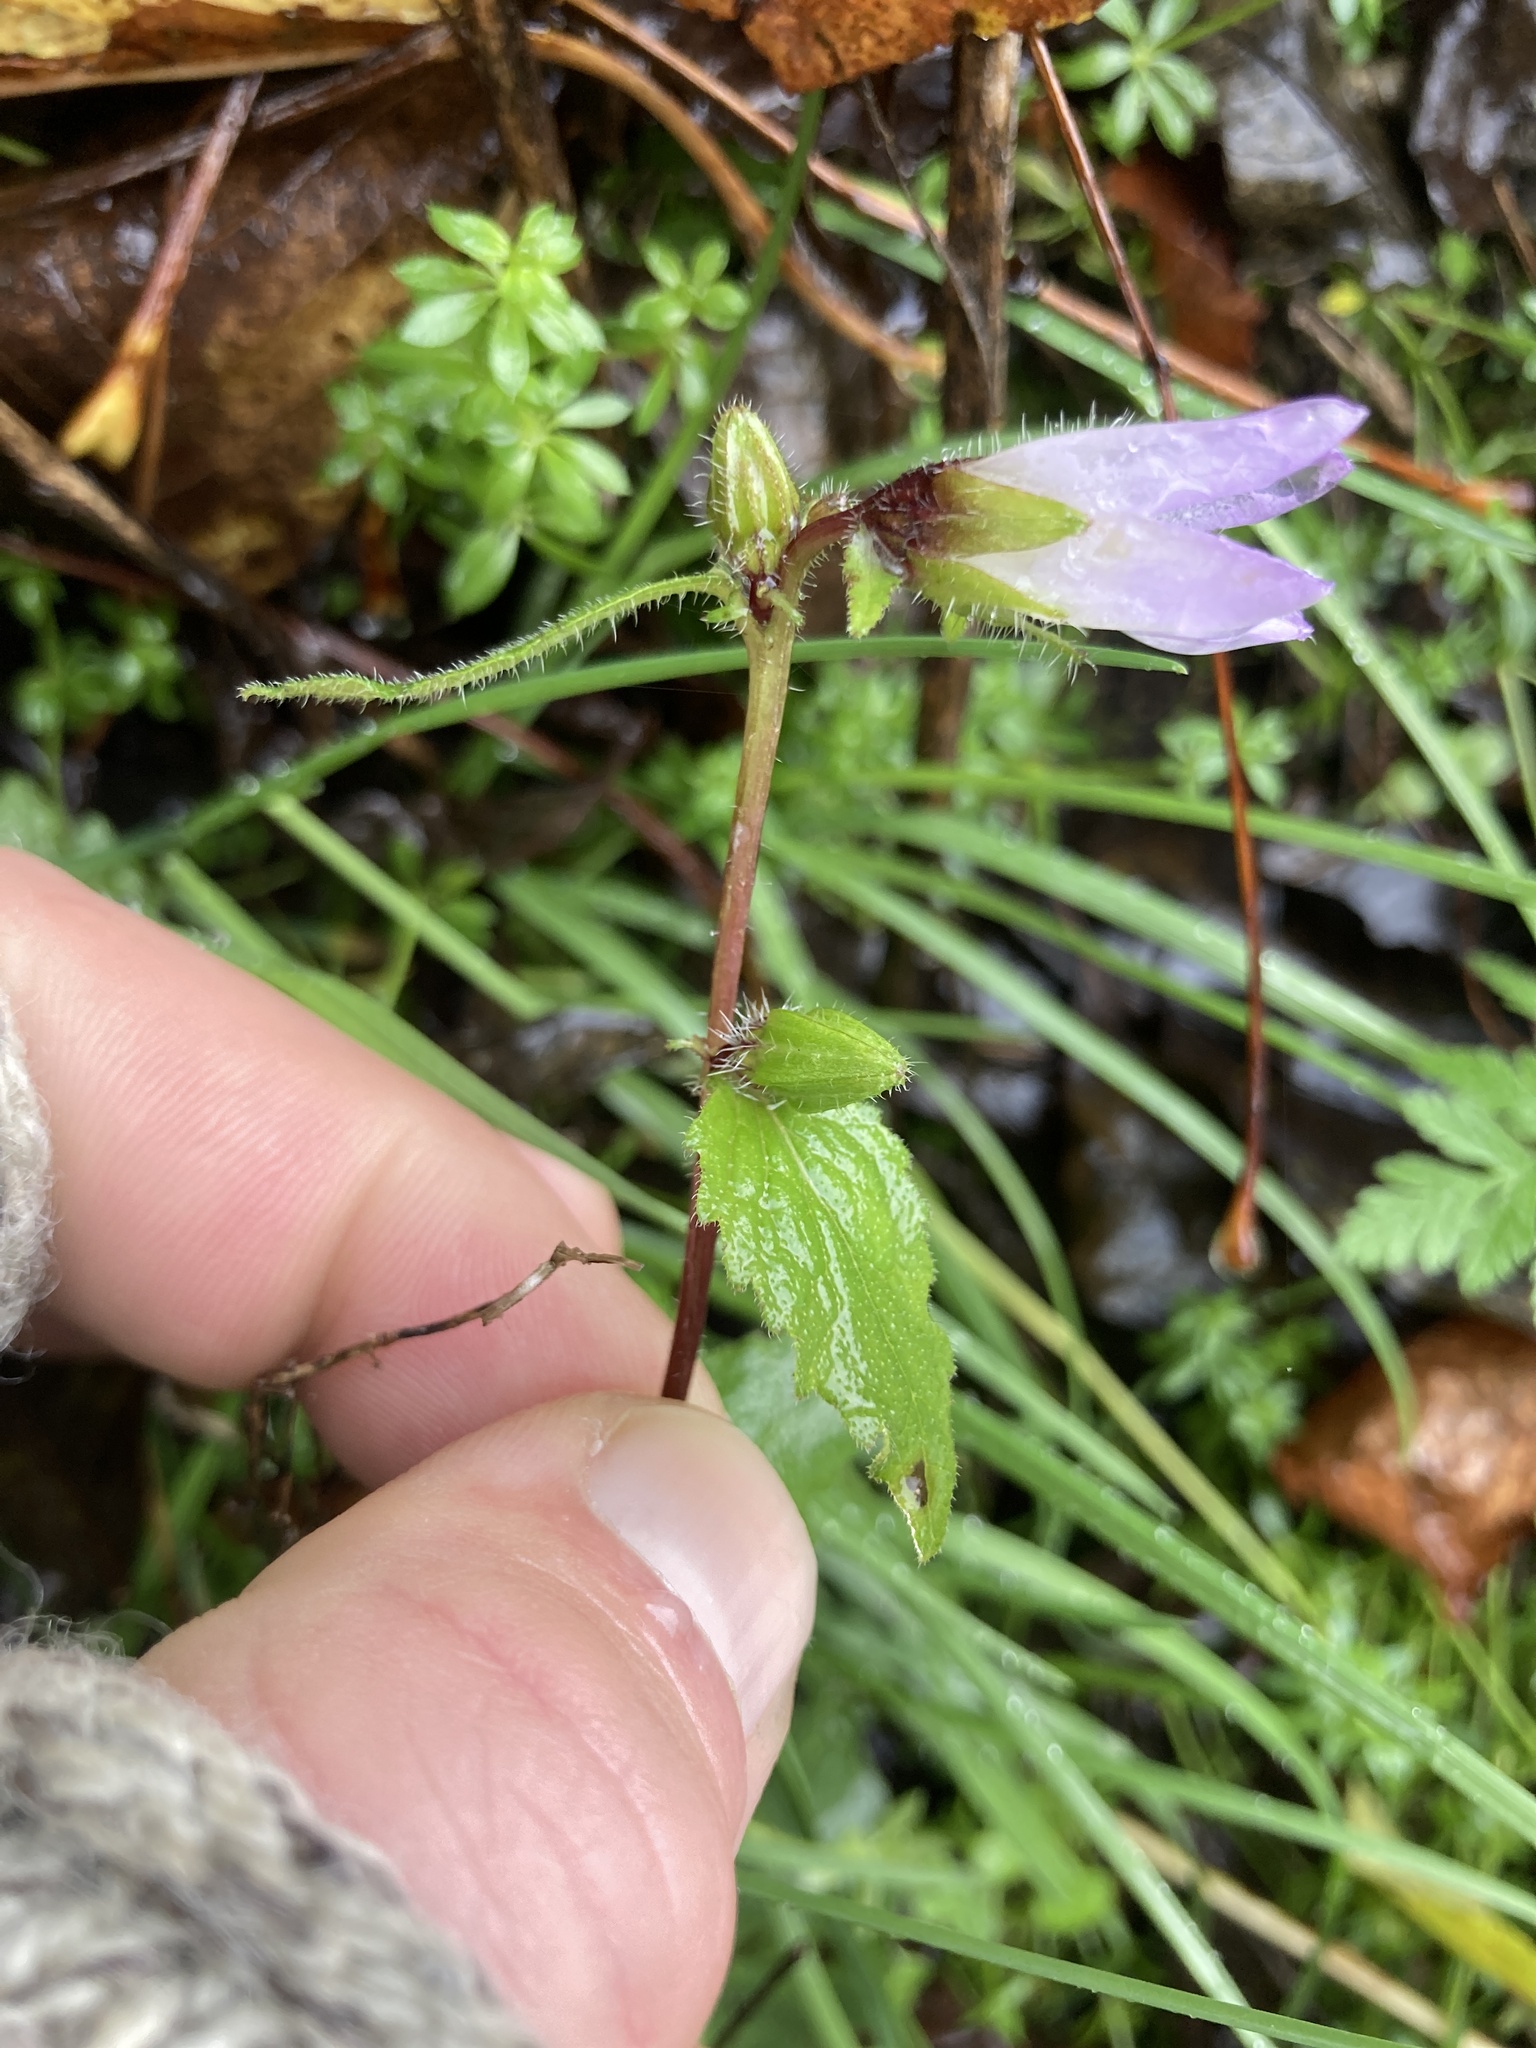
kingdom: Plantae
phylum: Tracheophyta
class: Magnoliopsida
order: Asterales
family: Campanulaceae
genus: Campanula
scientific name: Campanula trachelium
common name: Nettle-leaved bellflower
